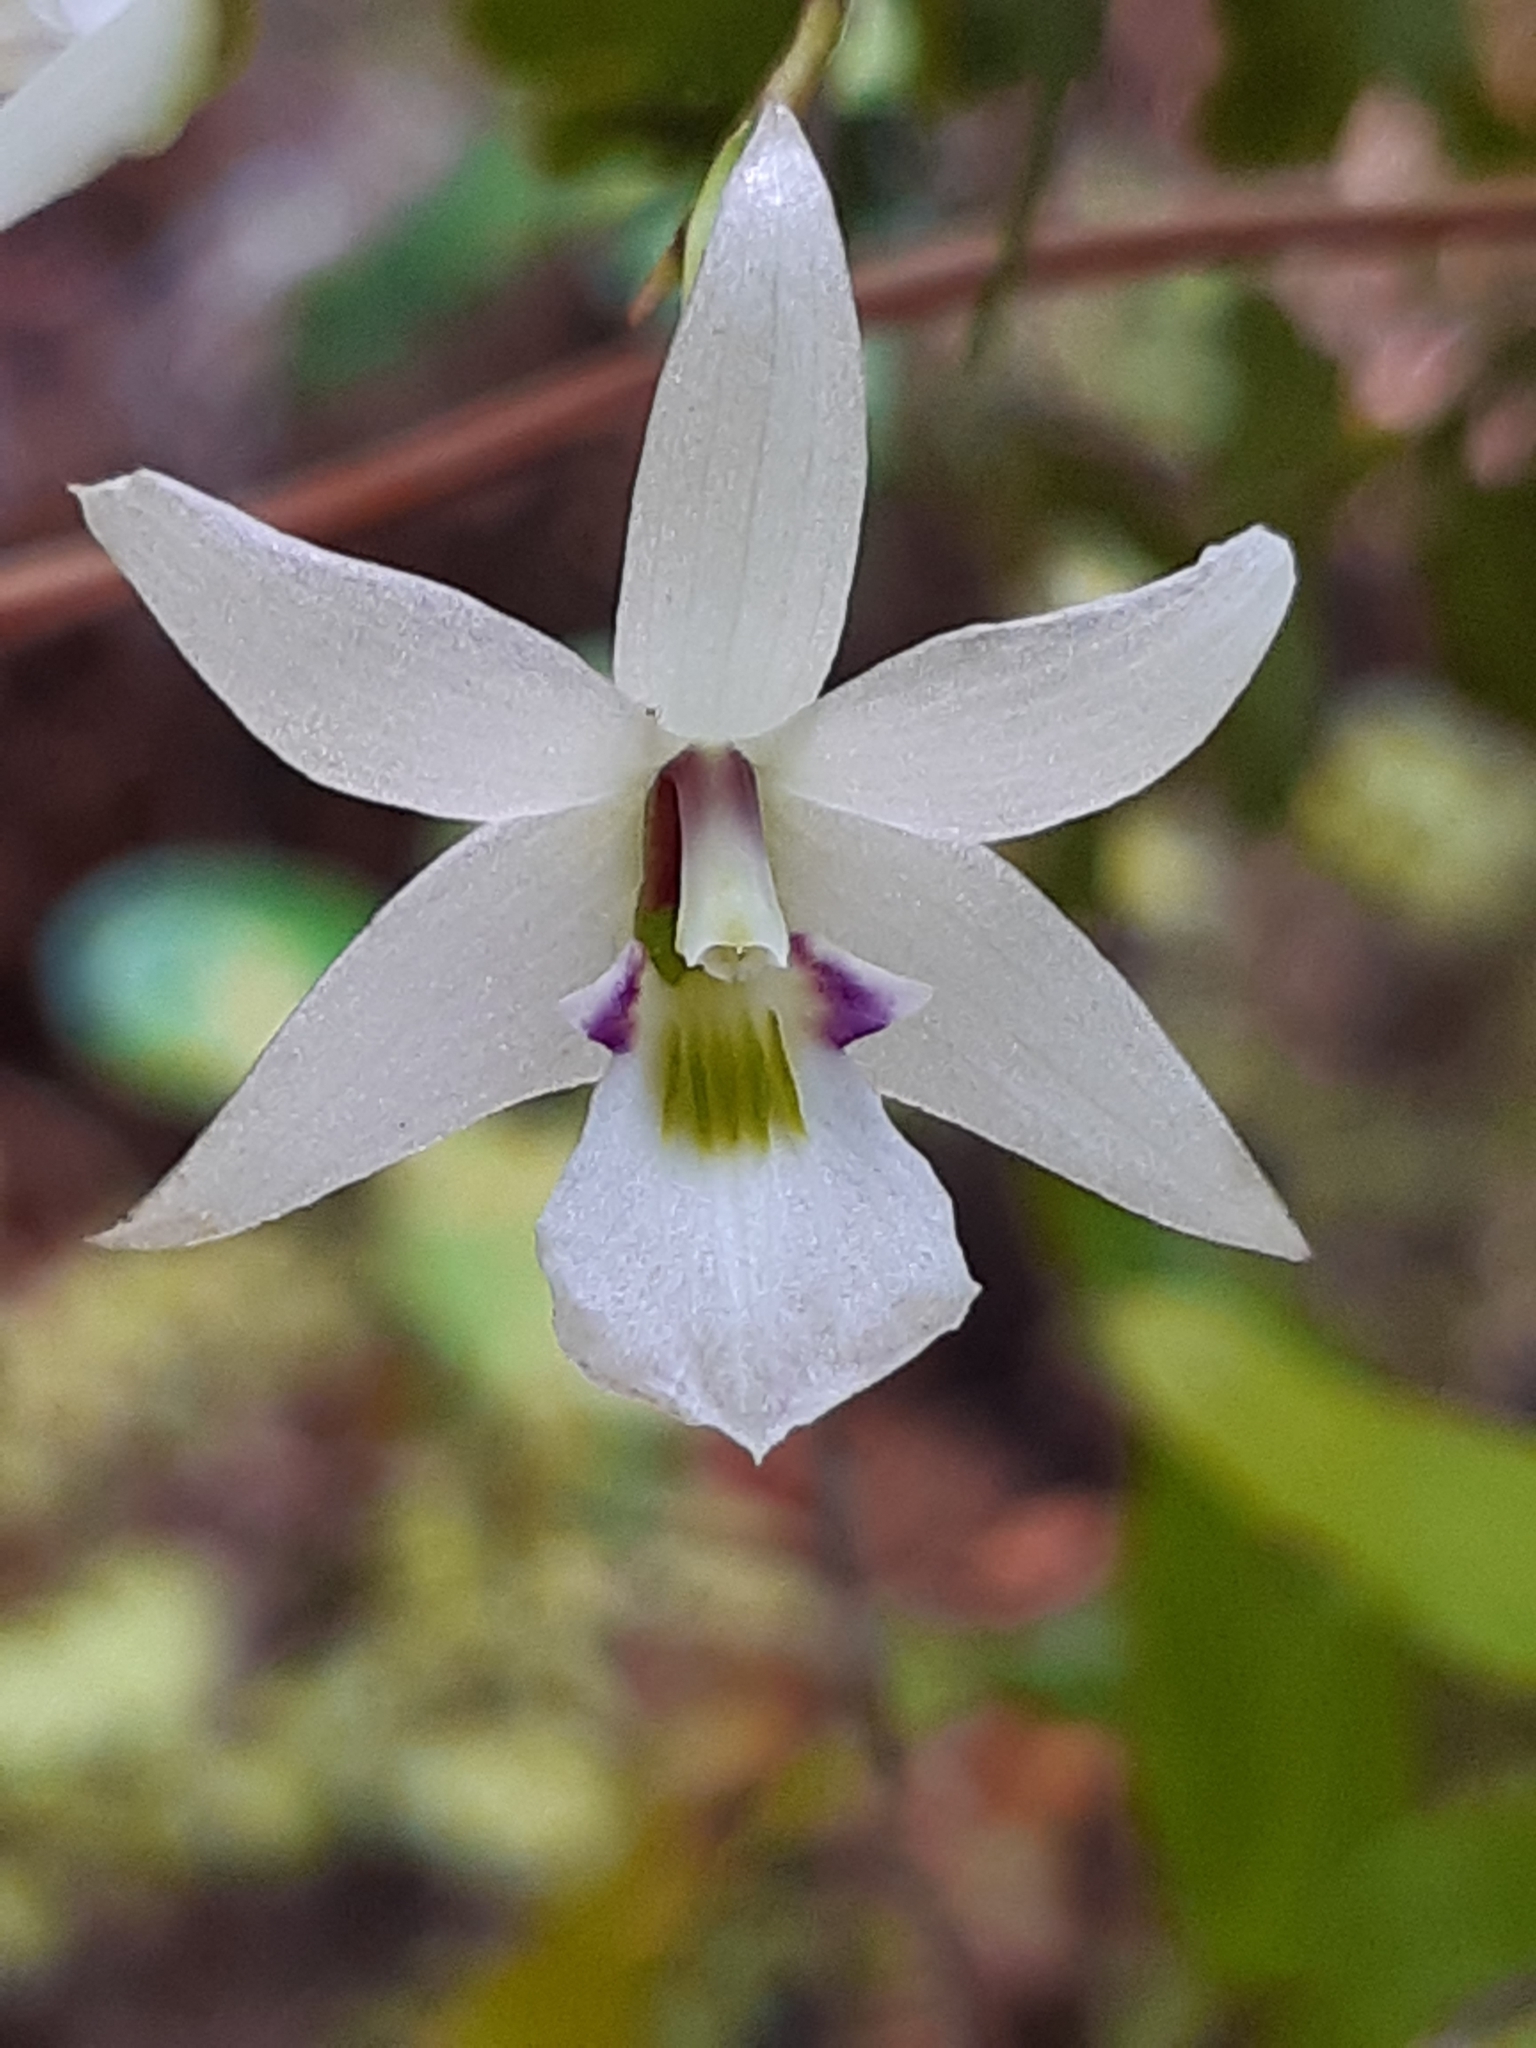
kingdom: Plantae
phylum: Tracheophyta
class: Liliopsida
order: Asparagales
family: Orchidaceae
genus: Dendrobium
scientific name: Dendrobium cunninghamii
